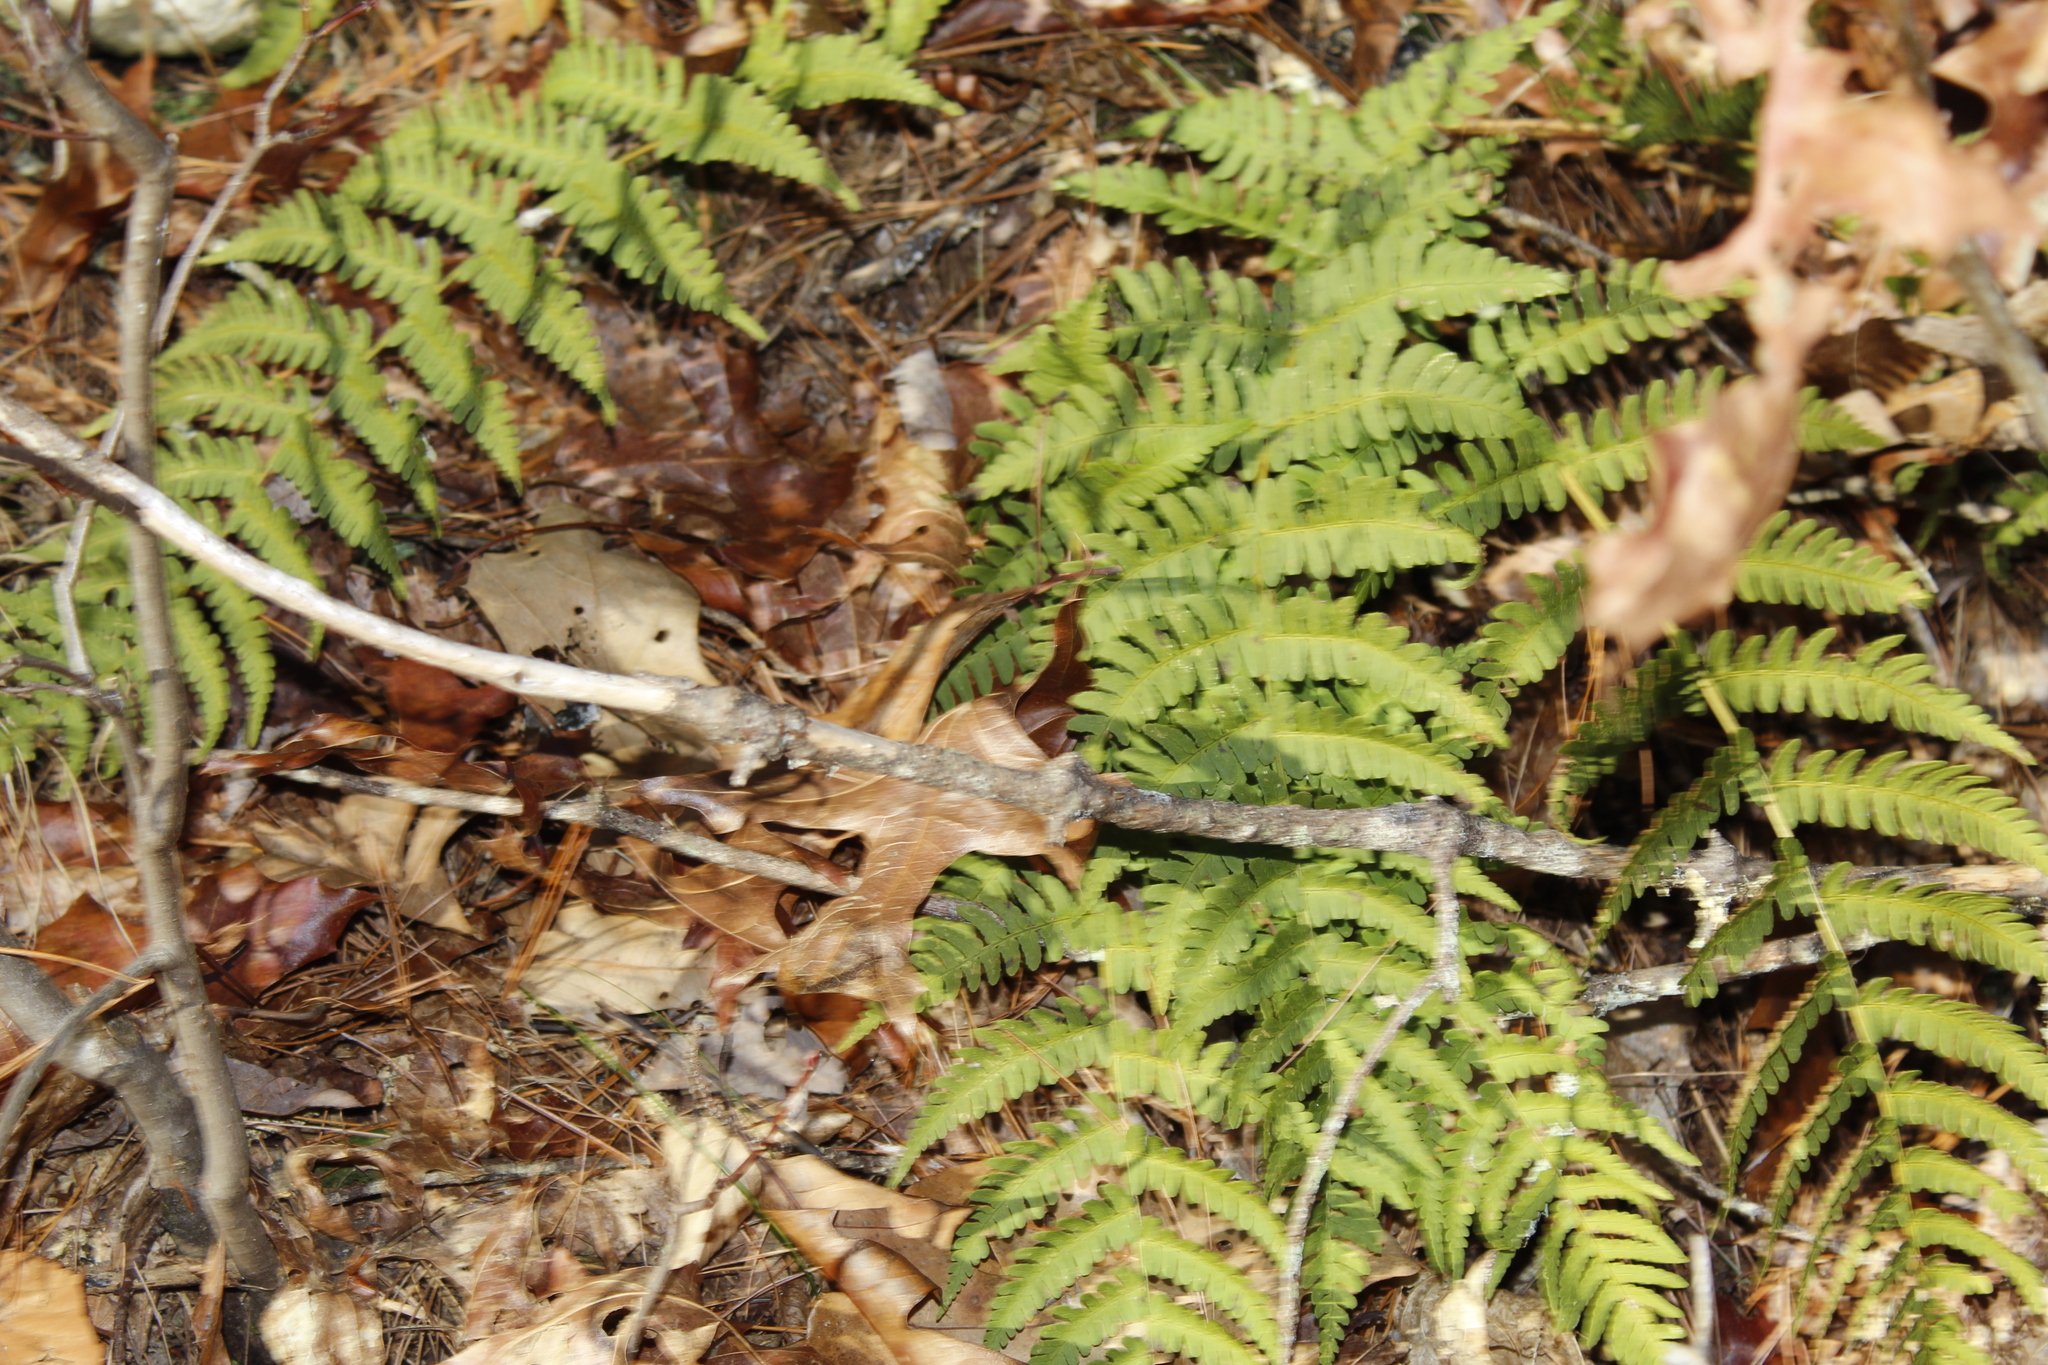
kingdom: Plantae
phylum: Tracheophyta
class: Polypodiopsida
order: Polypodiales
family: Dryopteridaceae
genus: Dryopteris
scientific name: Dryopteris marginalis
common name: Marginal wood fern
